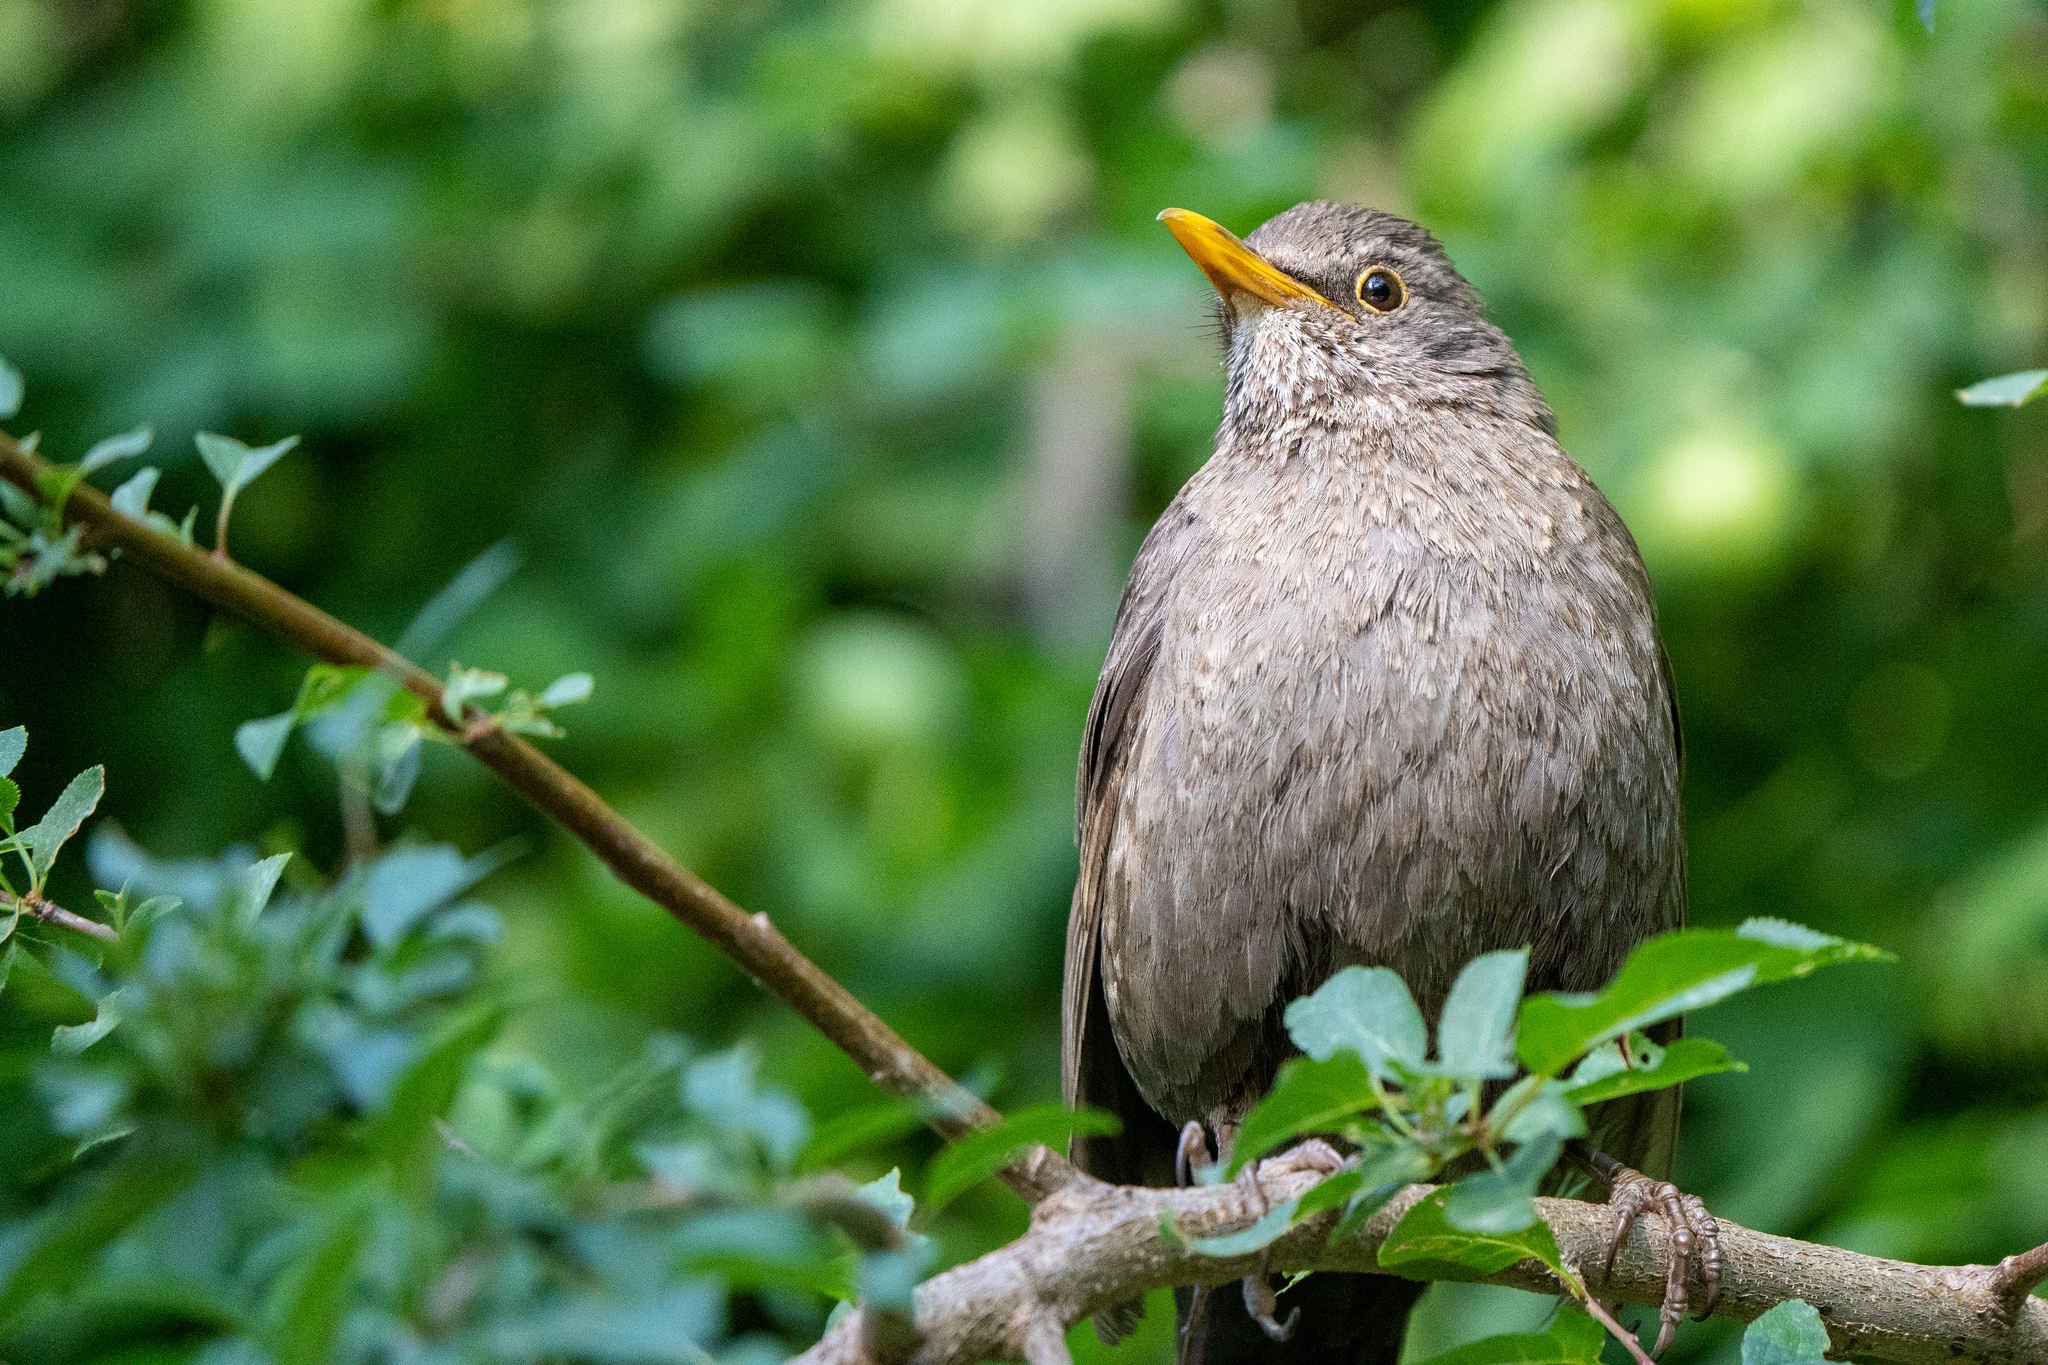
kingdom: Animalia
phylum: Chordata
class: Aves
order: Passeriformes
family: Turdidae
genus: Turdus
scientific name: Turdus merula
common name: Common blackbird
